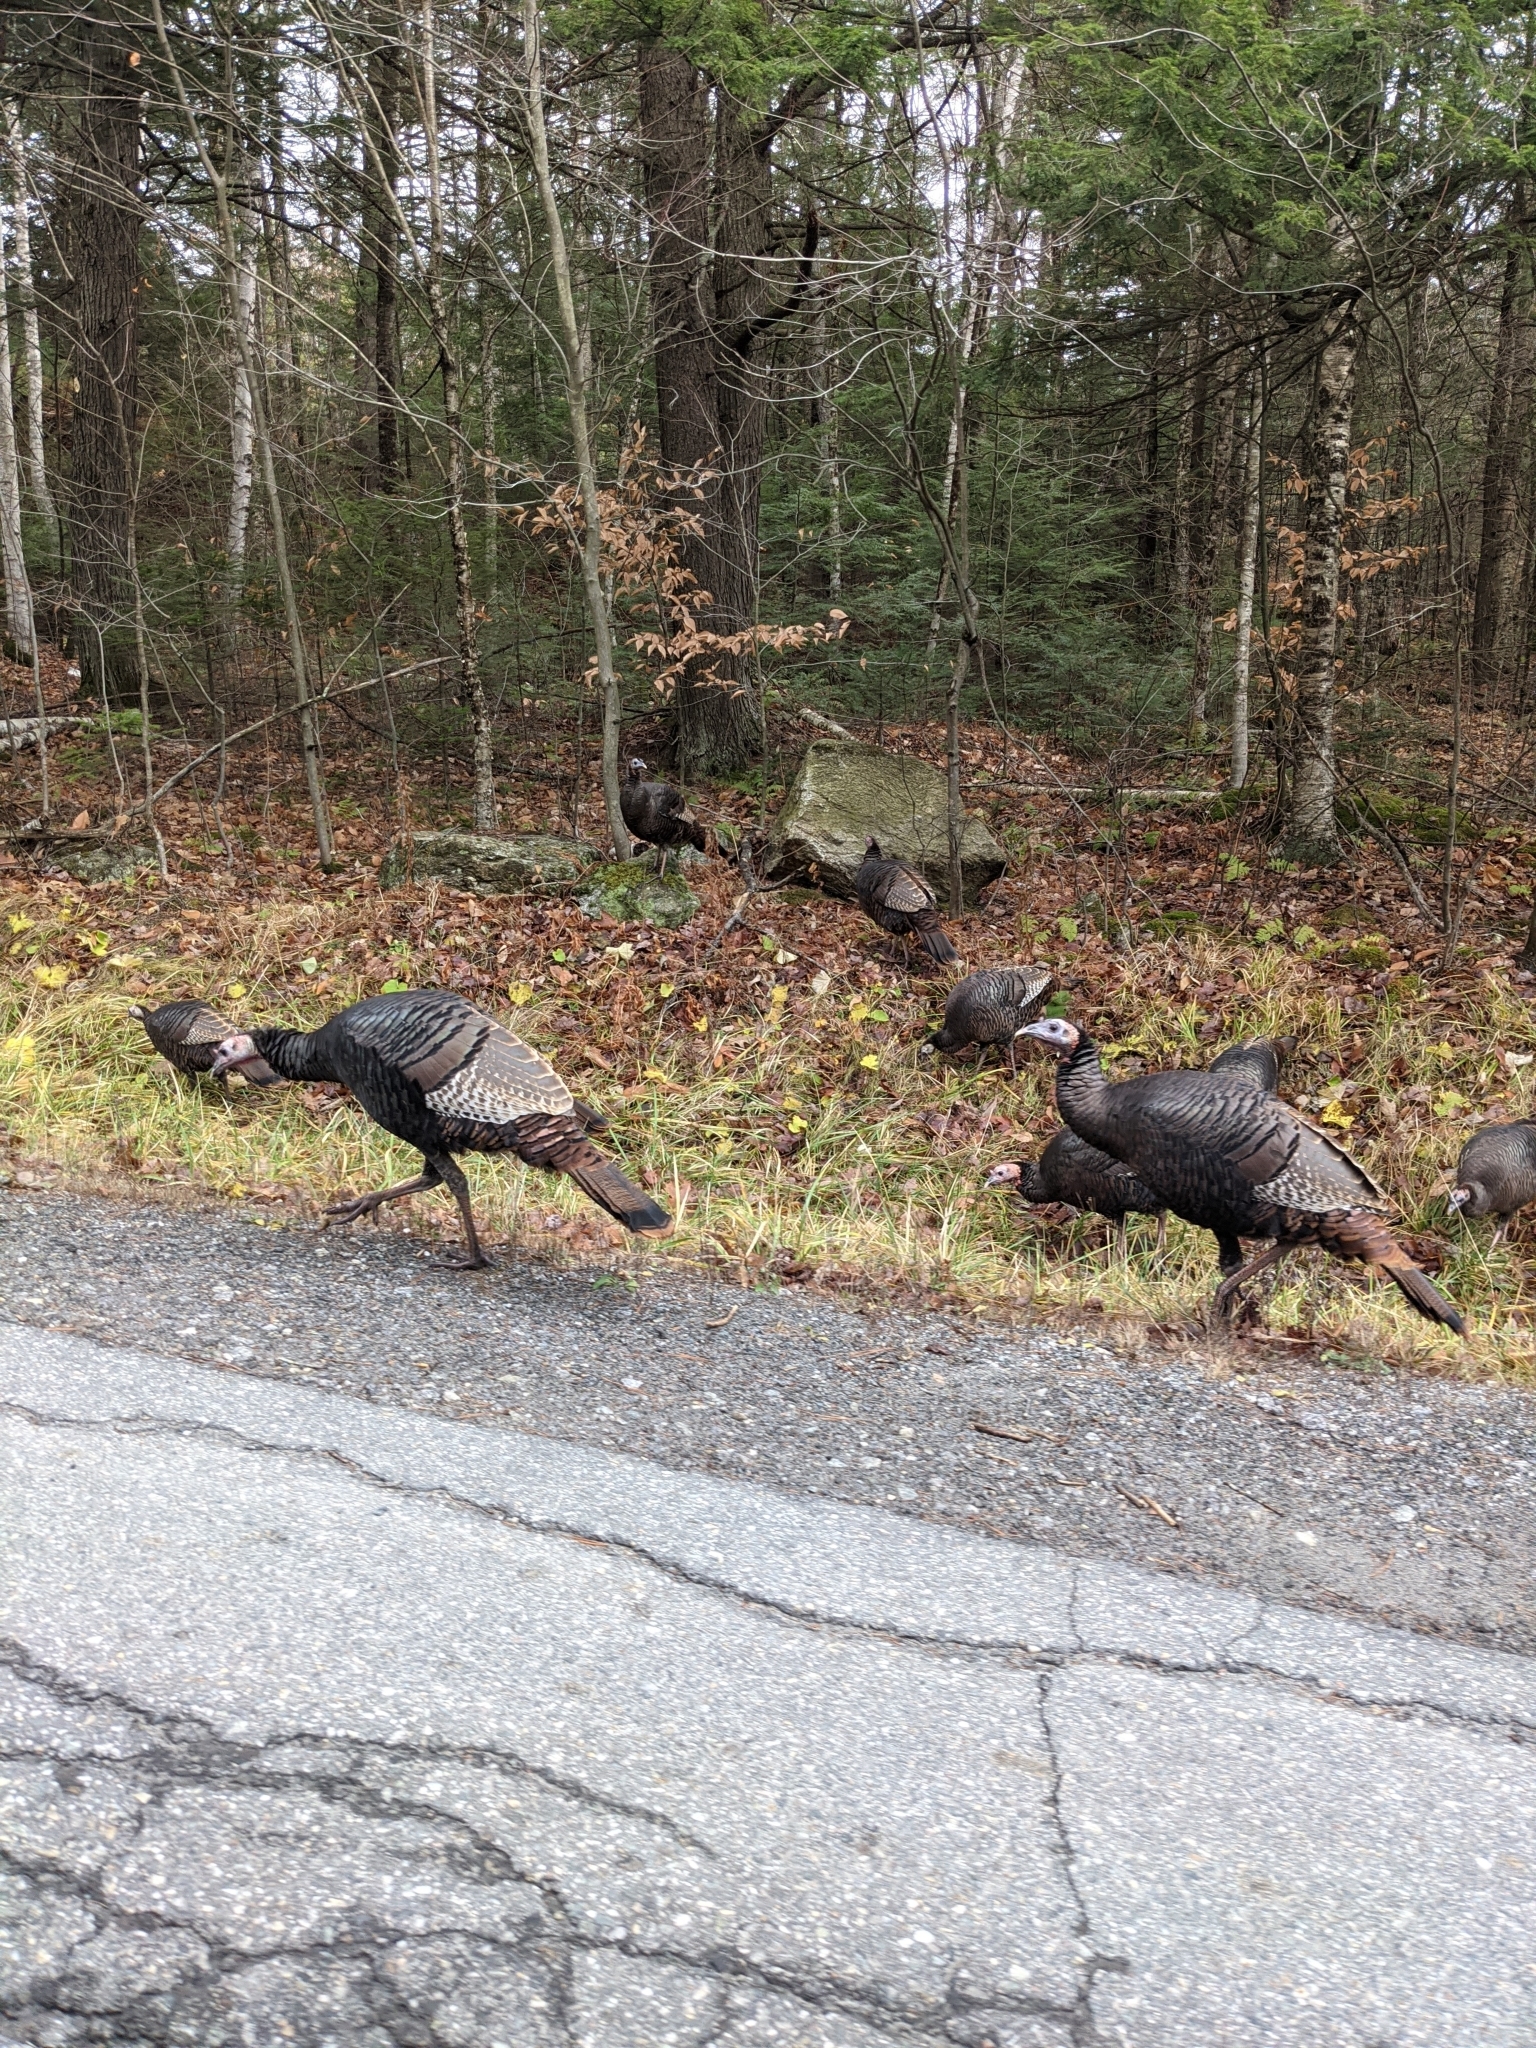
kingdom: Animalia
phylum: Chordata
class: Aves
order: Galliformes
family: Phasianidae
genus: Meleagris
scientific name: Meleagris gallopavo
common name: Wild turkey
